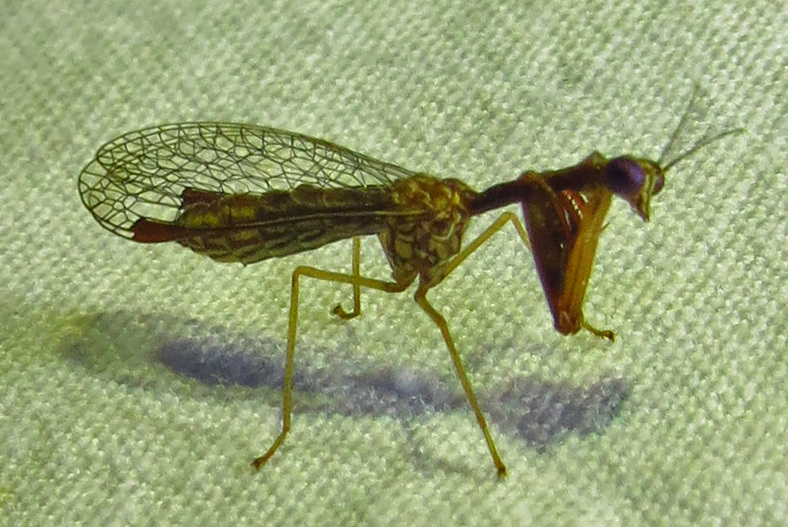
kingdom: Animalia
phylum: Arthropoda
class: Insecta
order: Neuroptera
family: Mantispidae
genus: Leptomantispa
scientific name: Leptomantispa pulchella
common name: Stevens's mantidfly
